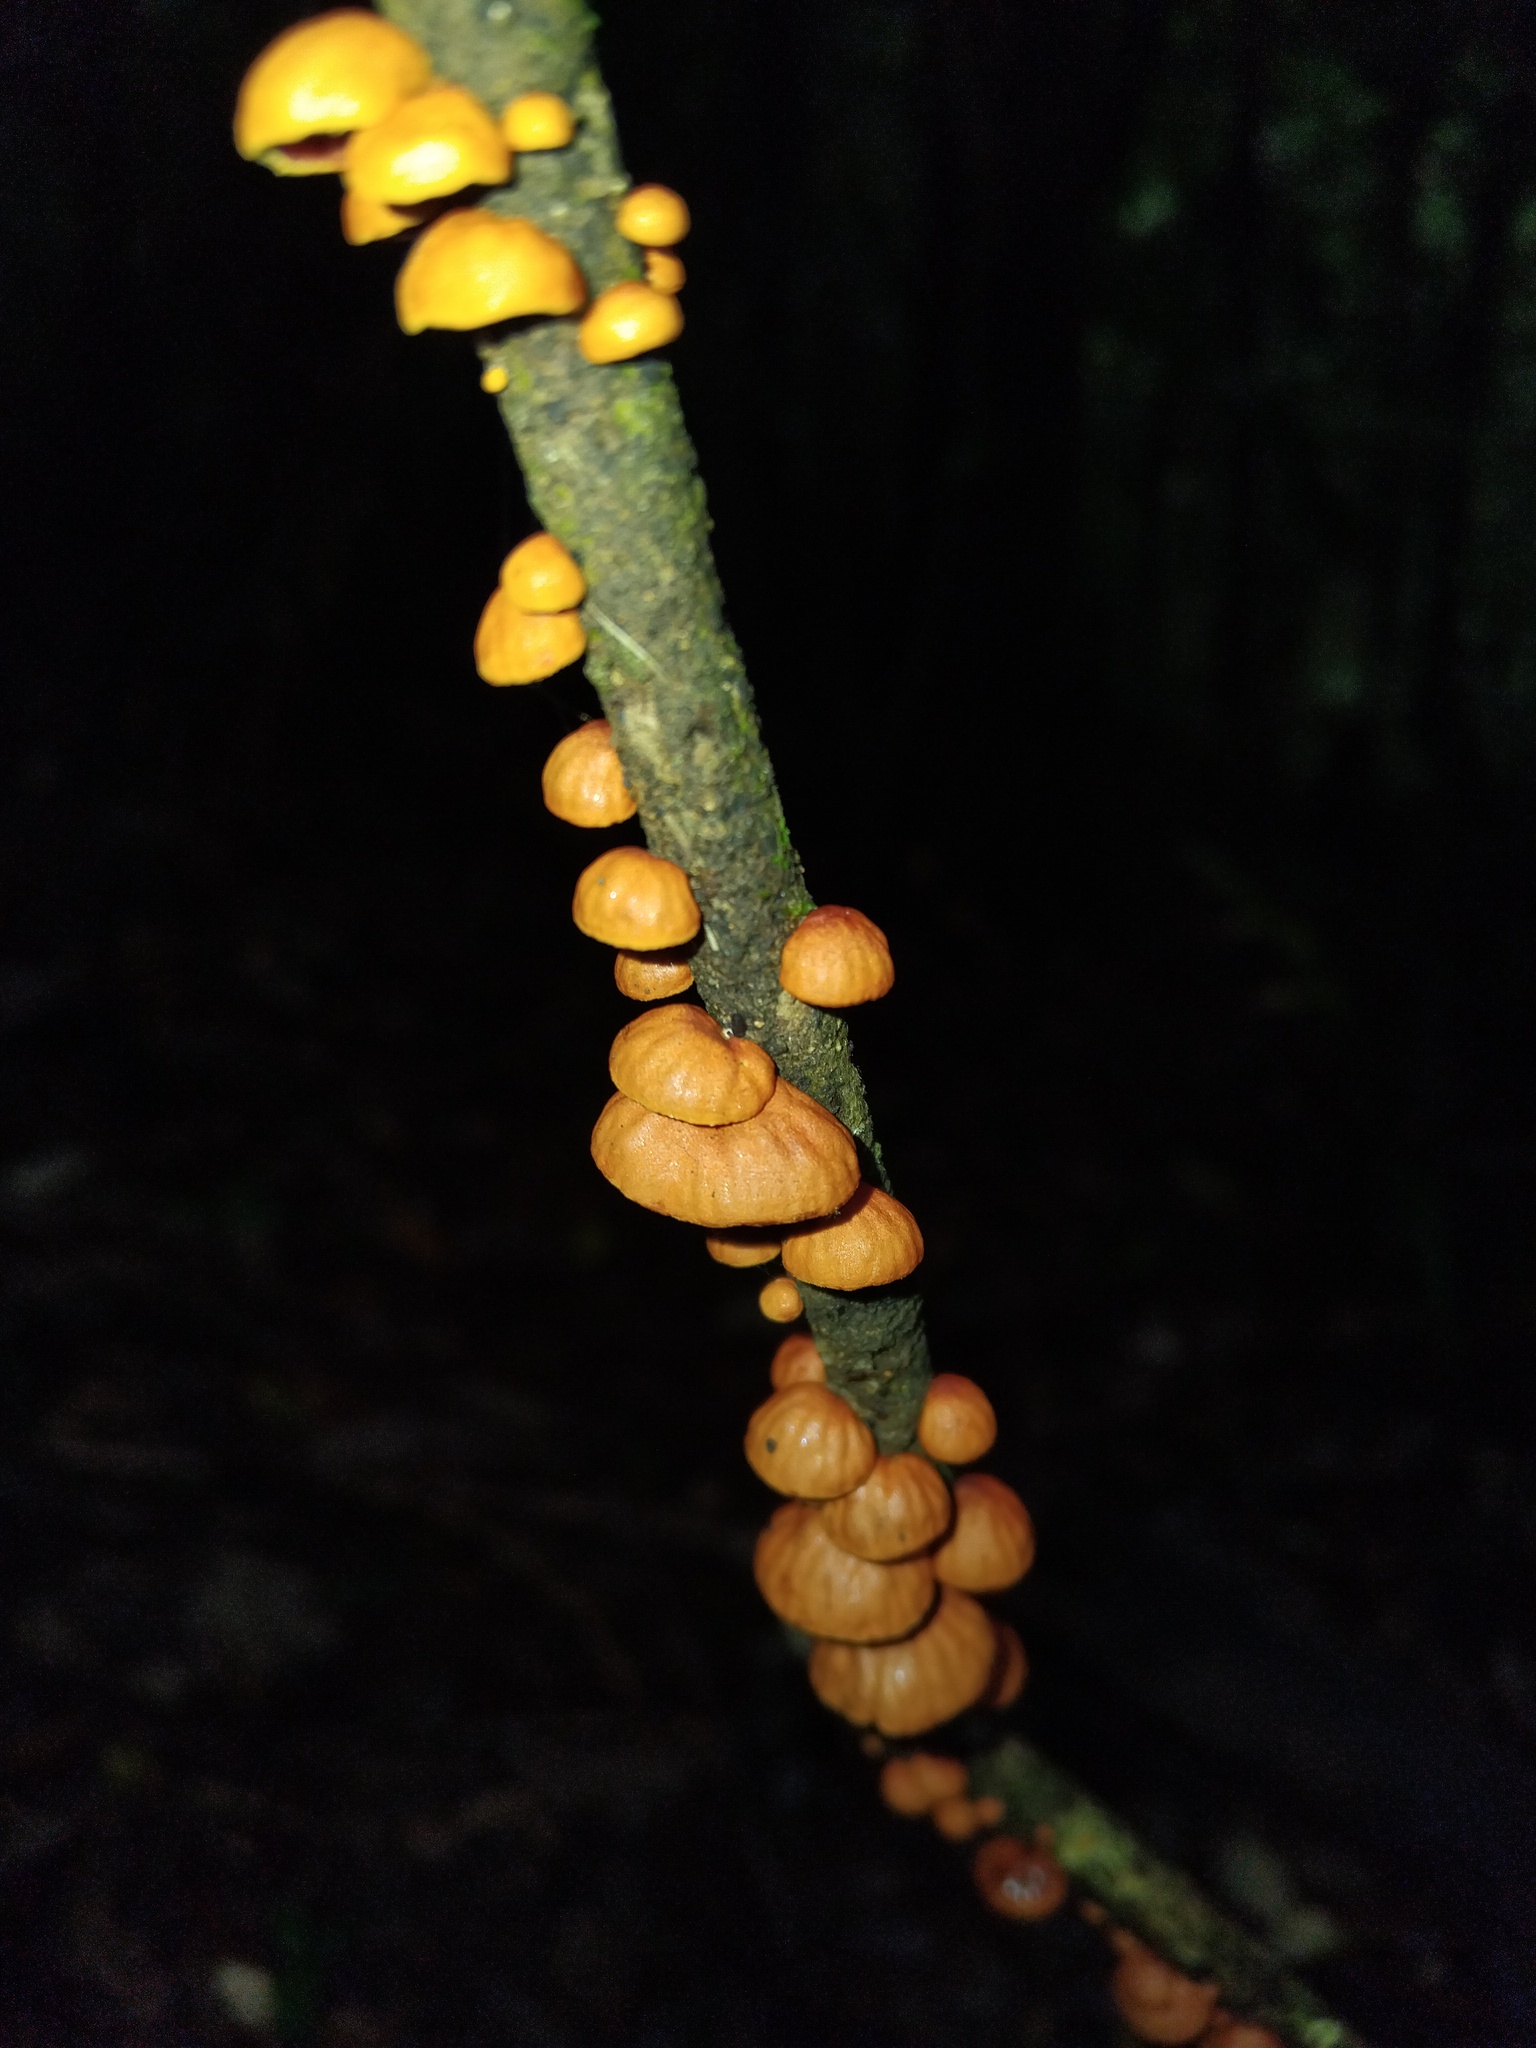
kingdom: Fungi
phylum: Basidiomycota
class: Agaricomycetes
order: Agaricales
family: Omphalotaceae
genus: Anthracophyllum
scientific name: Anthracophyllum archeri
